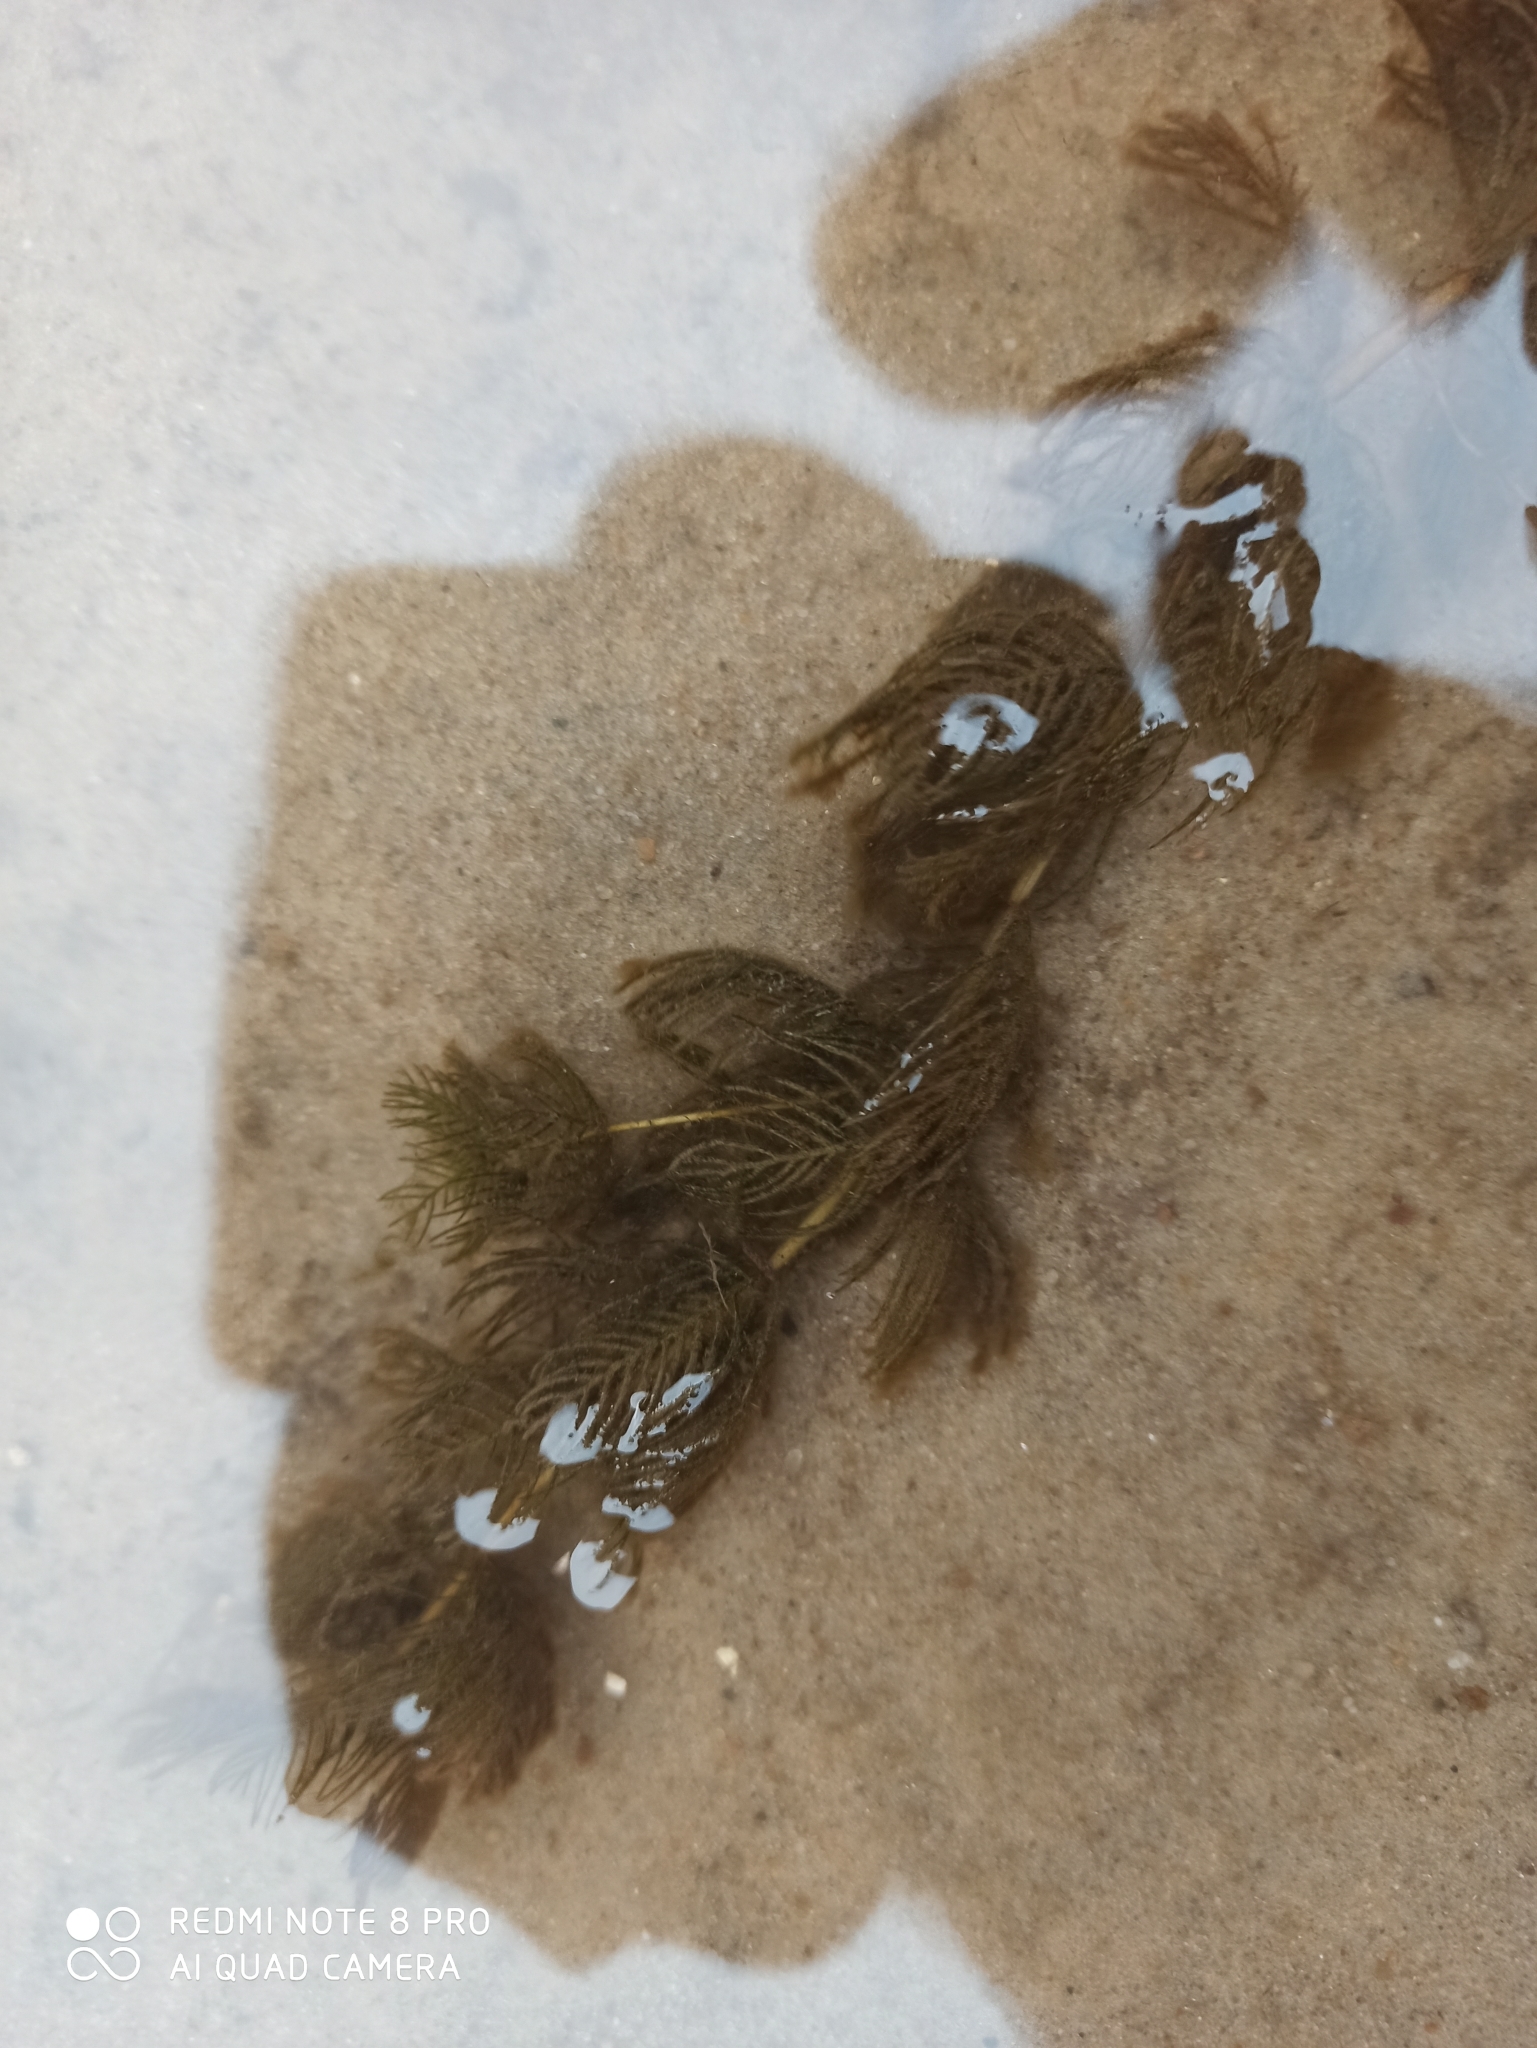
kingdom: Plantae
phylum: Tracheophyta
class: Magnoliopsida
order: Saxifragales
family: Haloragaceae
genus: Myriophyllum
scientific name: Myriophyllum spicatum
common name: Spiked water-milfoil
